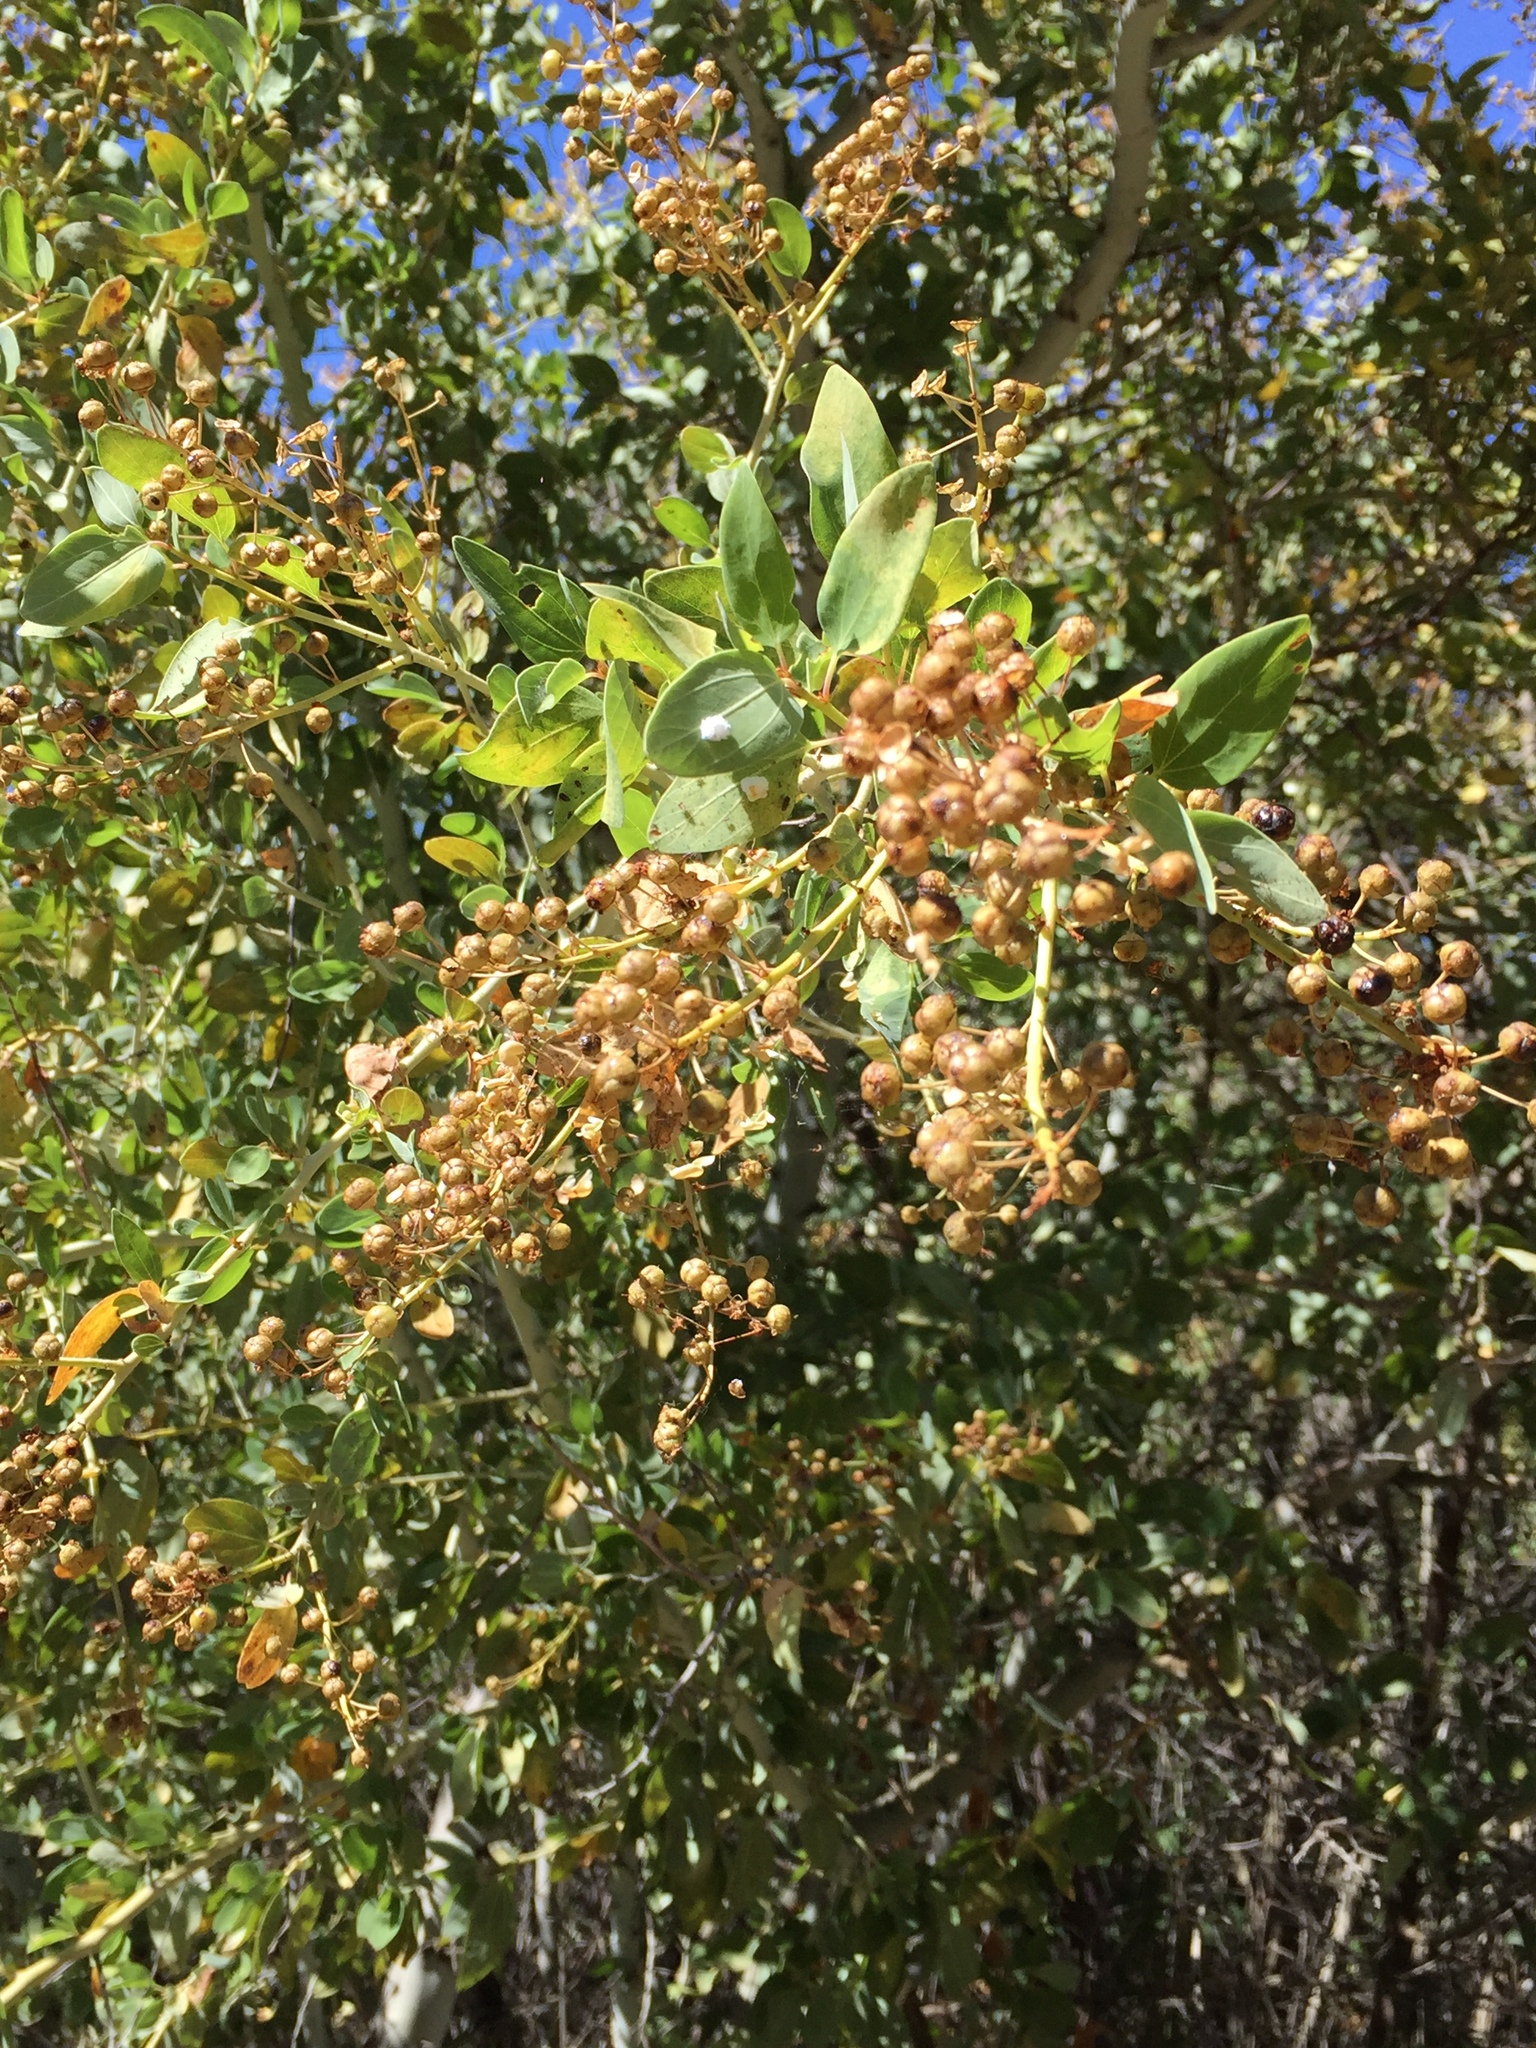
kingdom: Plantae
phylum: Tracheophyta
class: Magnoliopsida
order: Rosales
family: Rhamnaceae
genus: Ceanothus
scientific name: Ceanothus leucodermis
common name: Chaparral whitethorn
